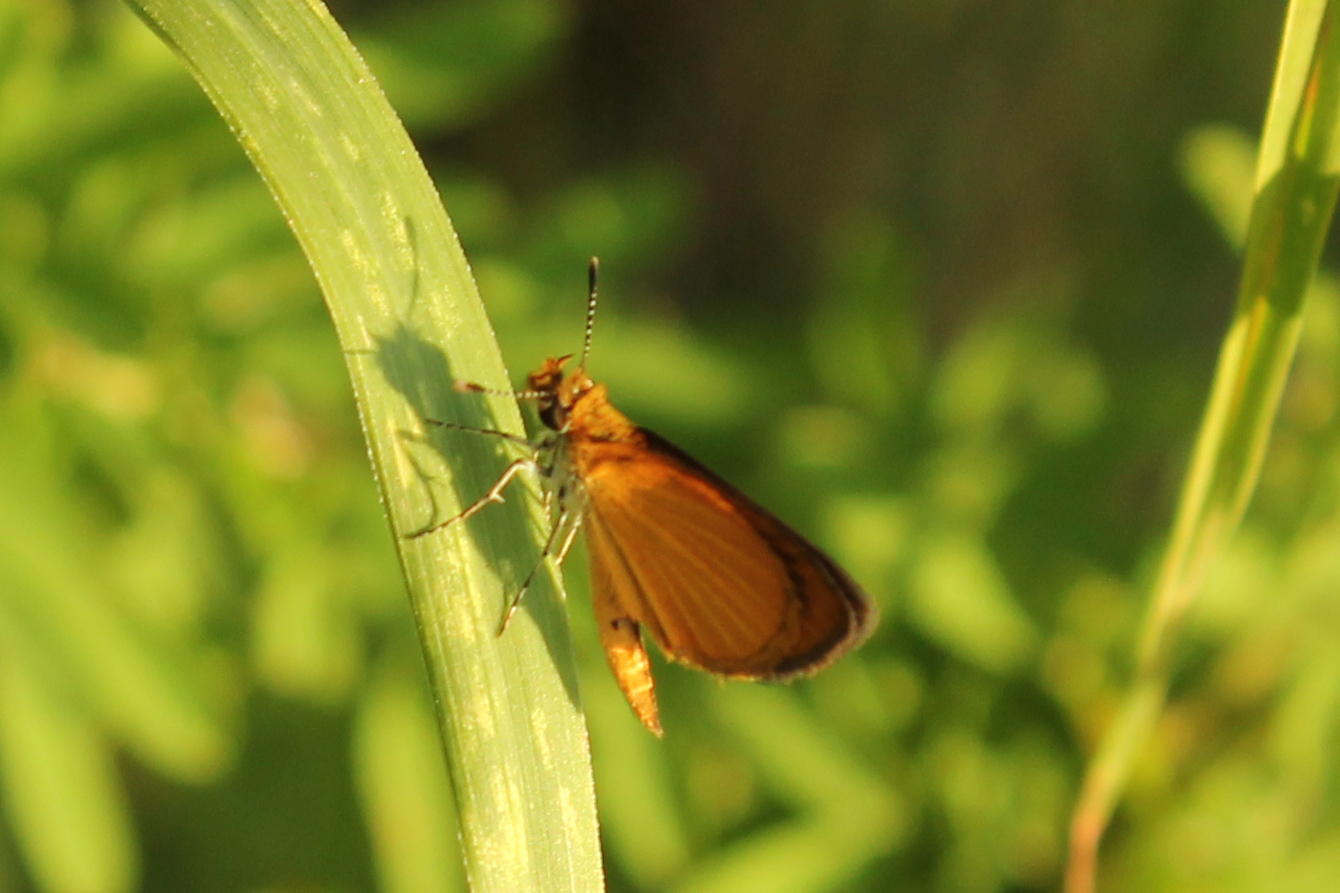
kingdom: Animalia
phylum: Arthropoda
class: Insecta
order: Lepidoptera
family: Hesperiidae
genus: Ancyloxypha
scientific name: Ancyloxypha numitor
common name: Least skipper
